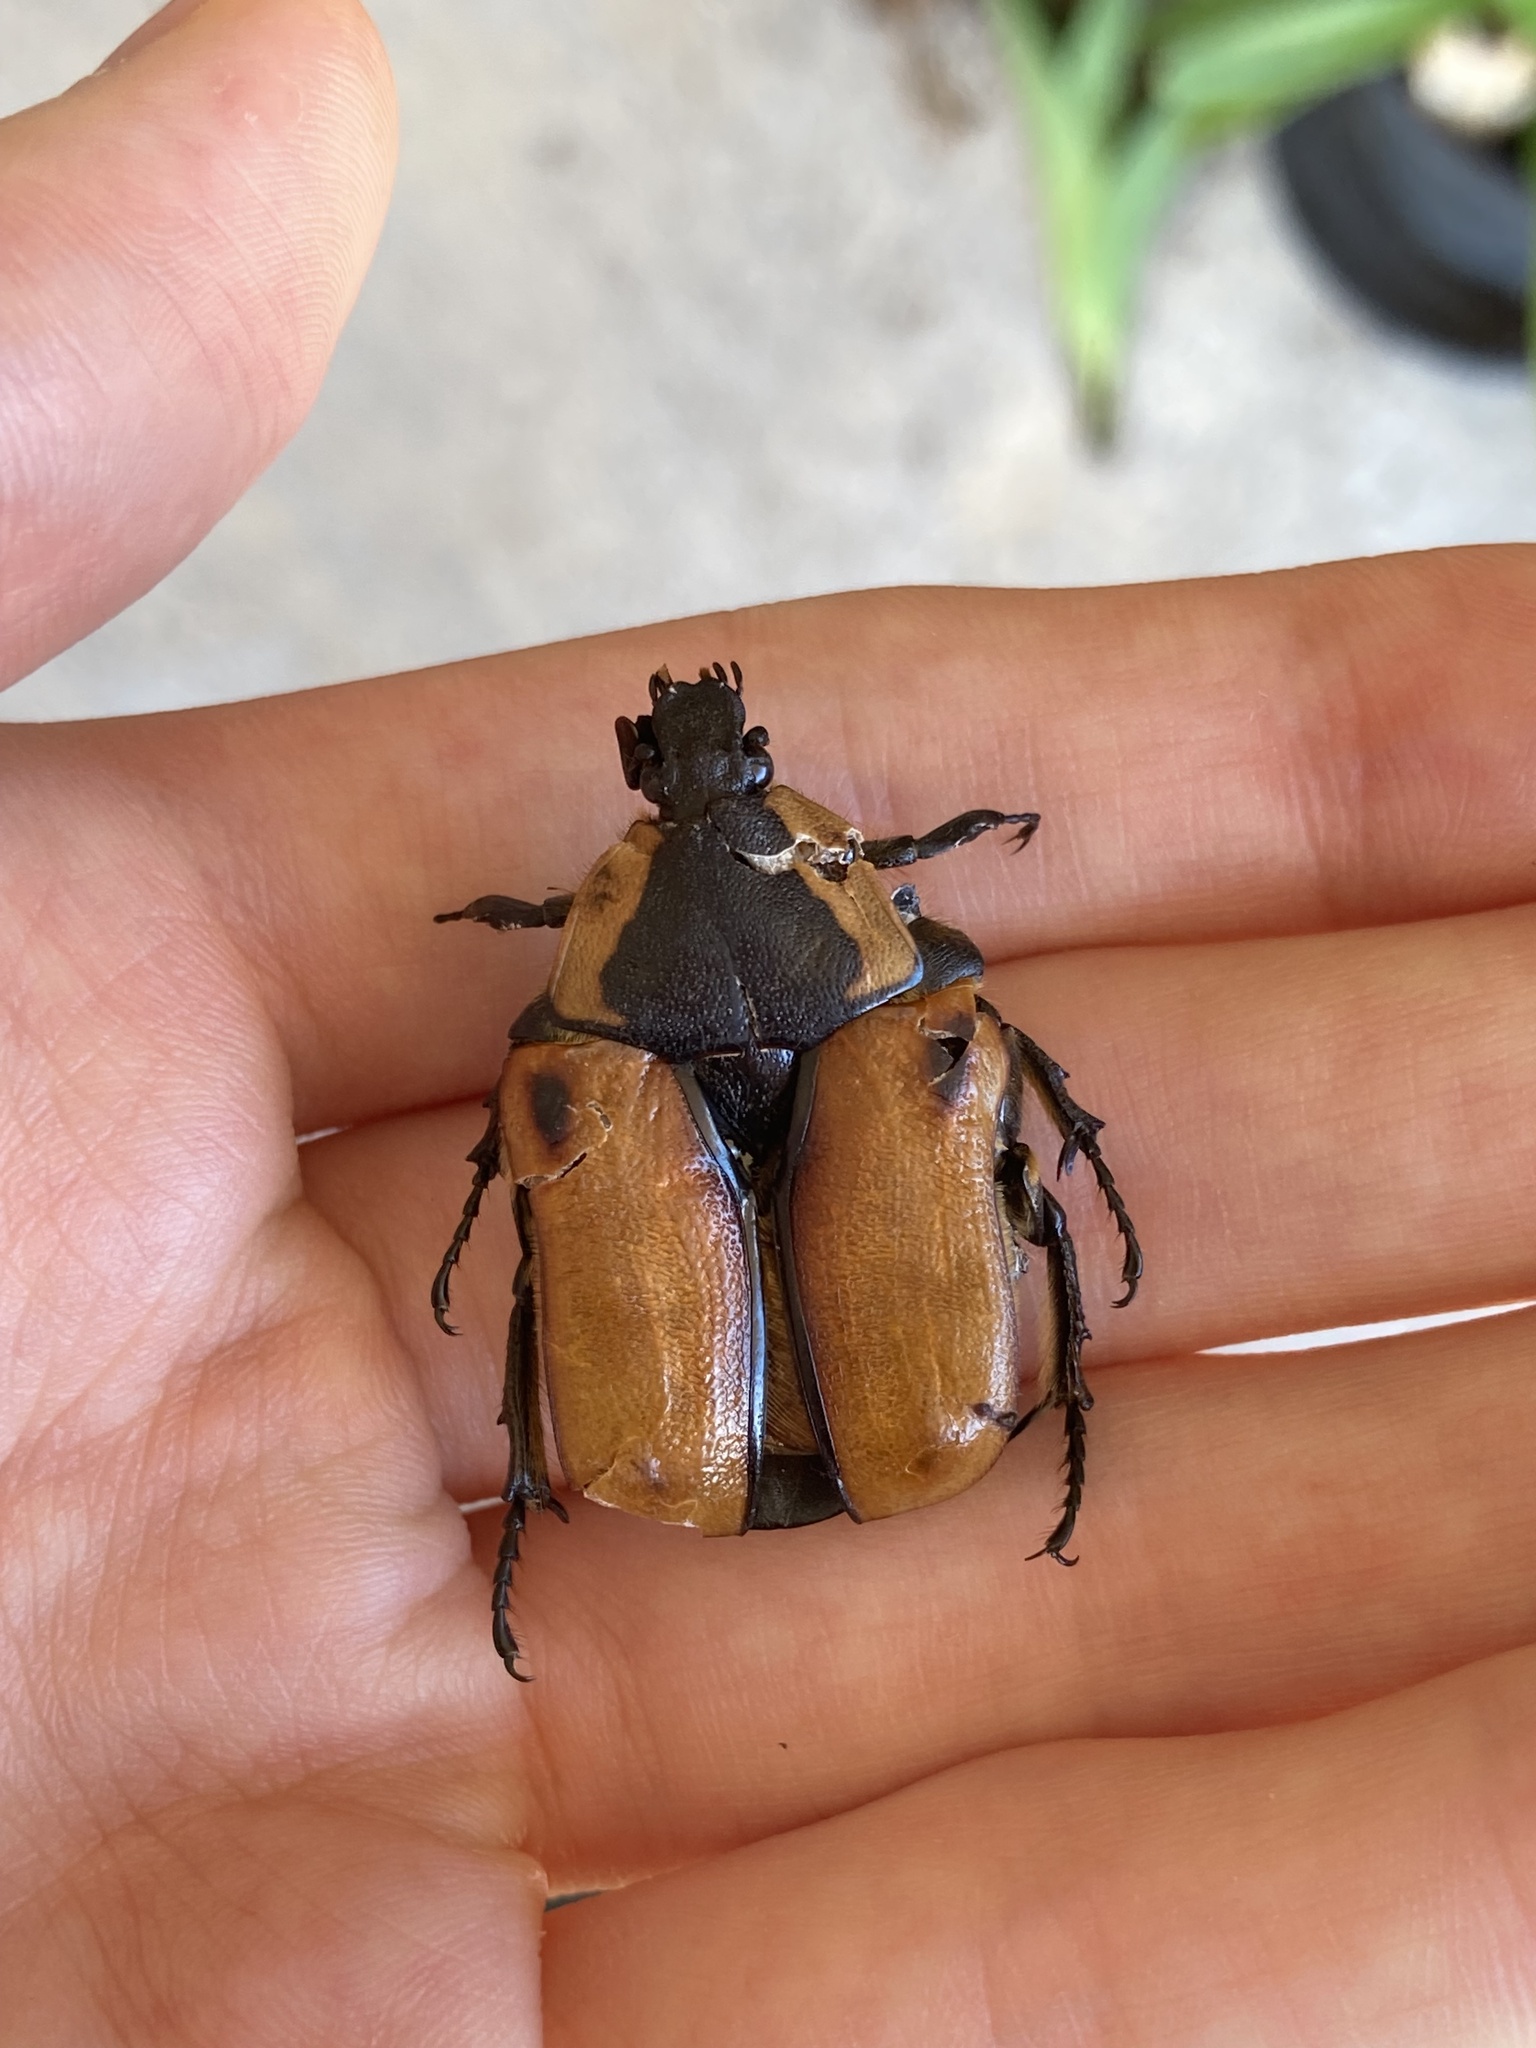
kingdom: Animalia
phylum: Arthropoda
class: Insecta
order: Coleoptera
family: Scarabaeidae
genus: Chondropyga
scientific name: Chondropyga dorsalis
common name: Cowboy beetle
